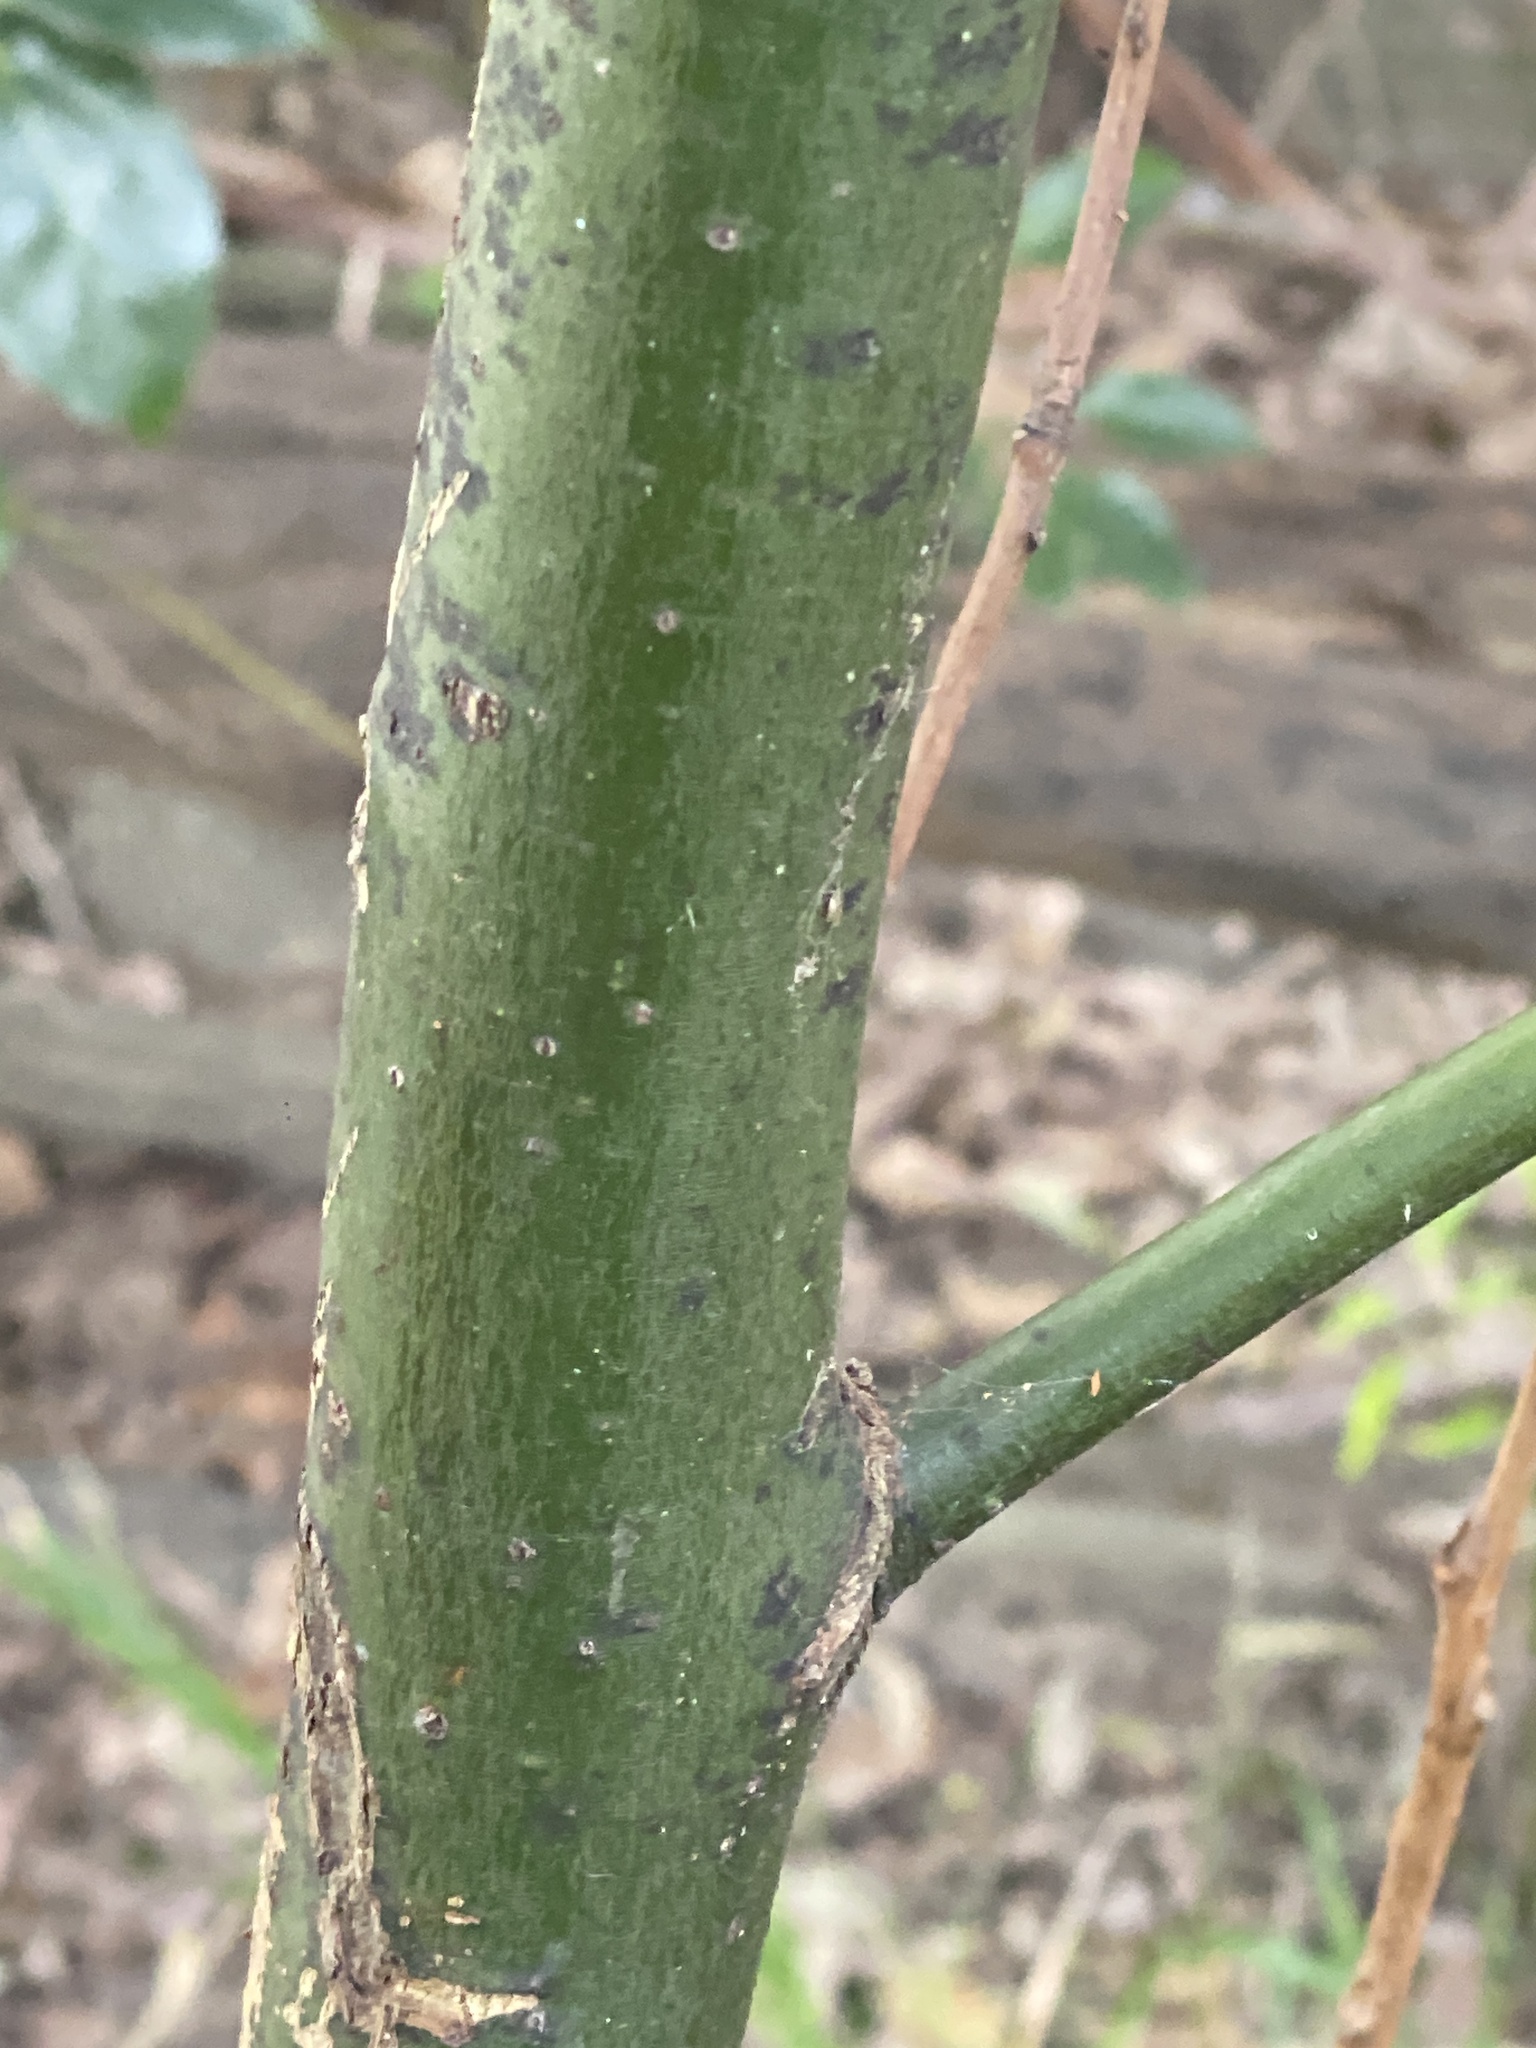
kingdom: Plantae
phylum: Tracheophyta
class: Magnoliopsida
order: Laurales
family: Lauraceae
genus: Cinnamomum
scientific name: Cinnamomum camphora
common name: Camphortree
